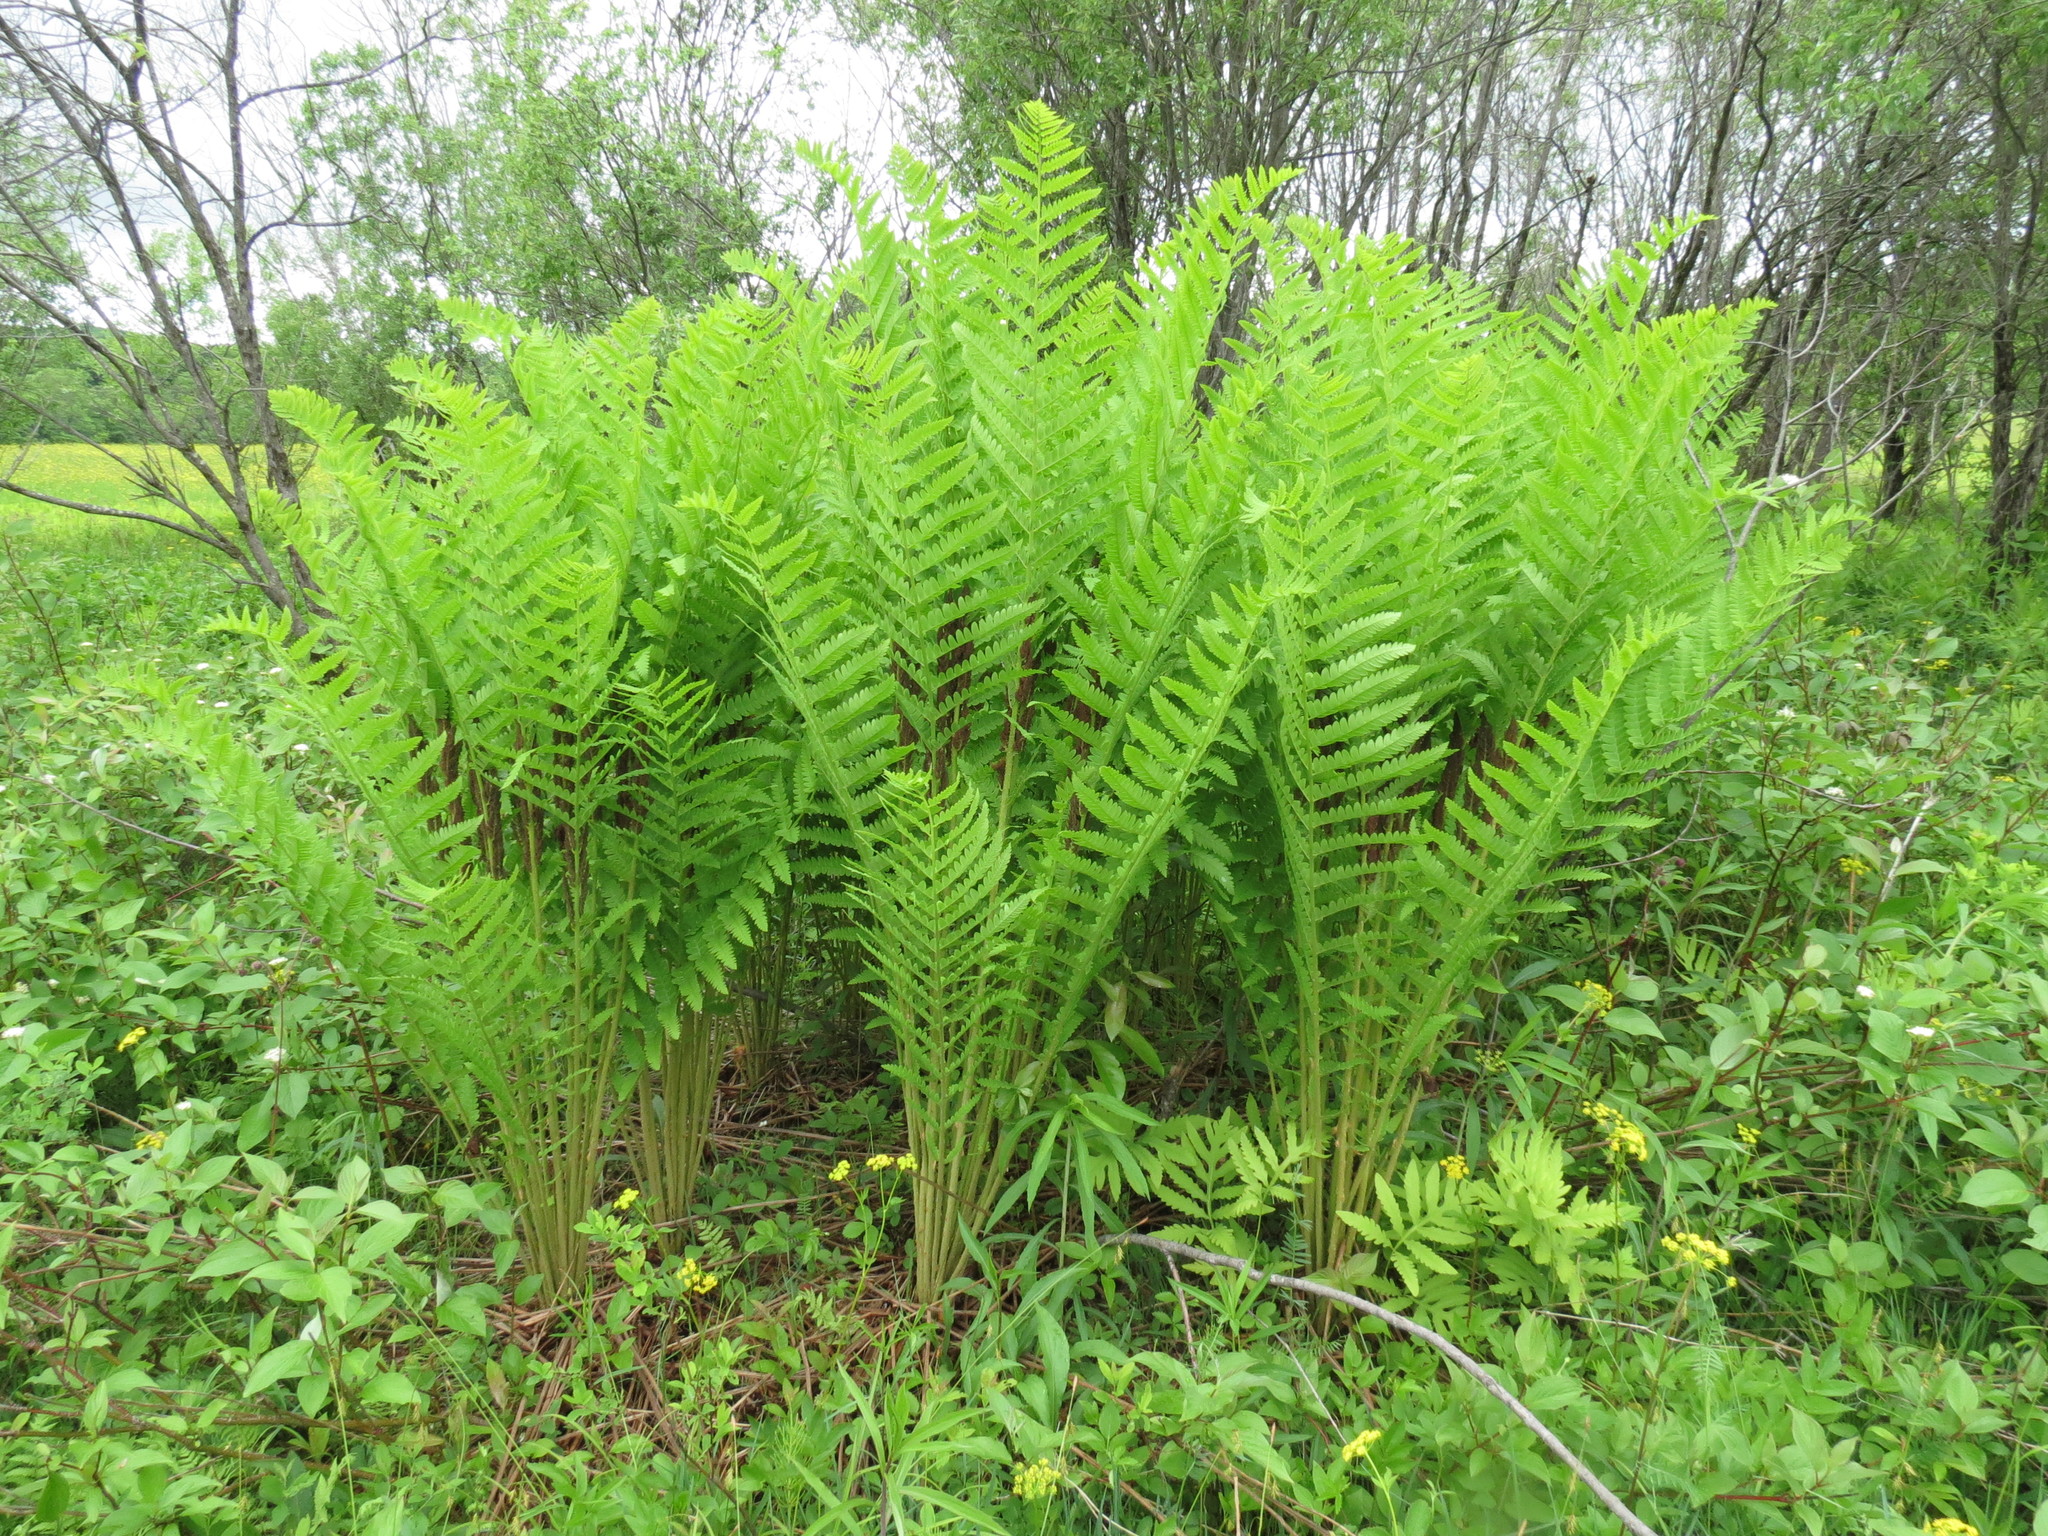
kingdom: Plantae
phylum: Tracheophyta
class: Polypodiopsida
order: Osmundales
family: Osmundaceae
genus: Claytosmunda
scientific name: Claytosmunda claytoniana
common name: Clayton's fern
